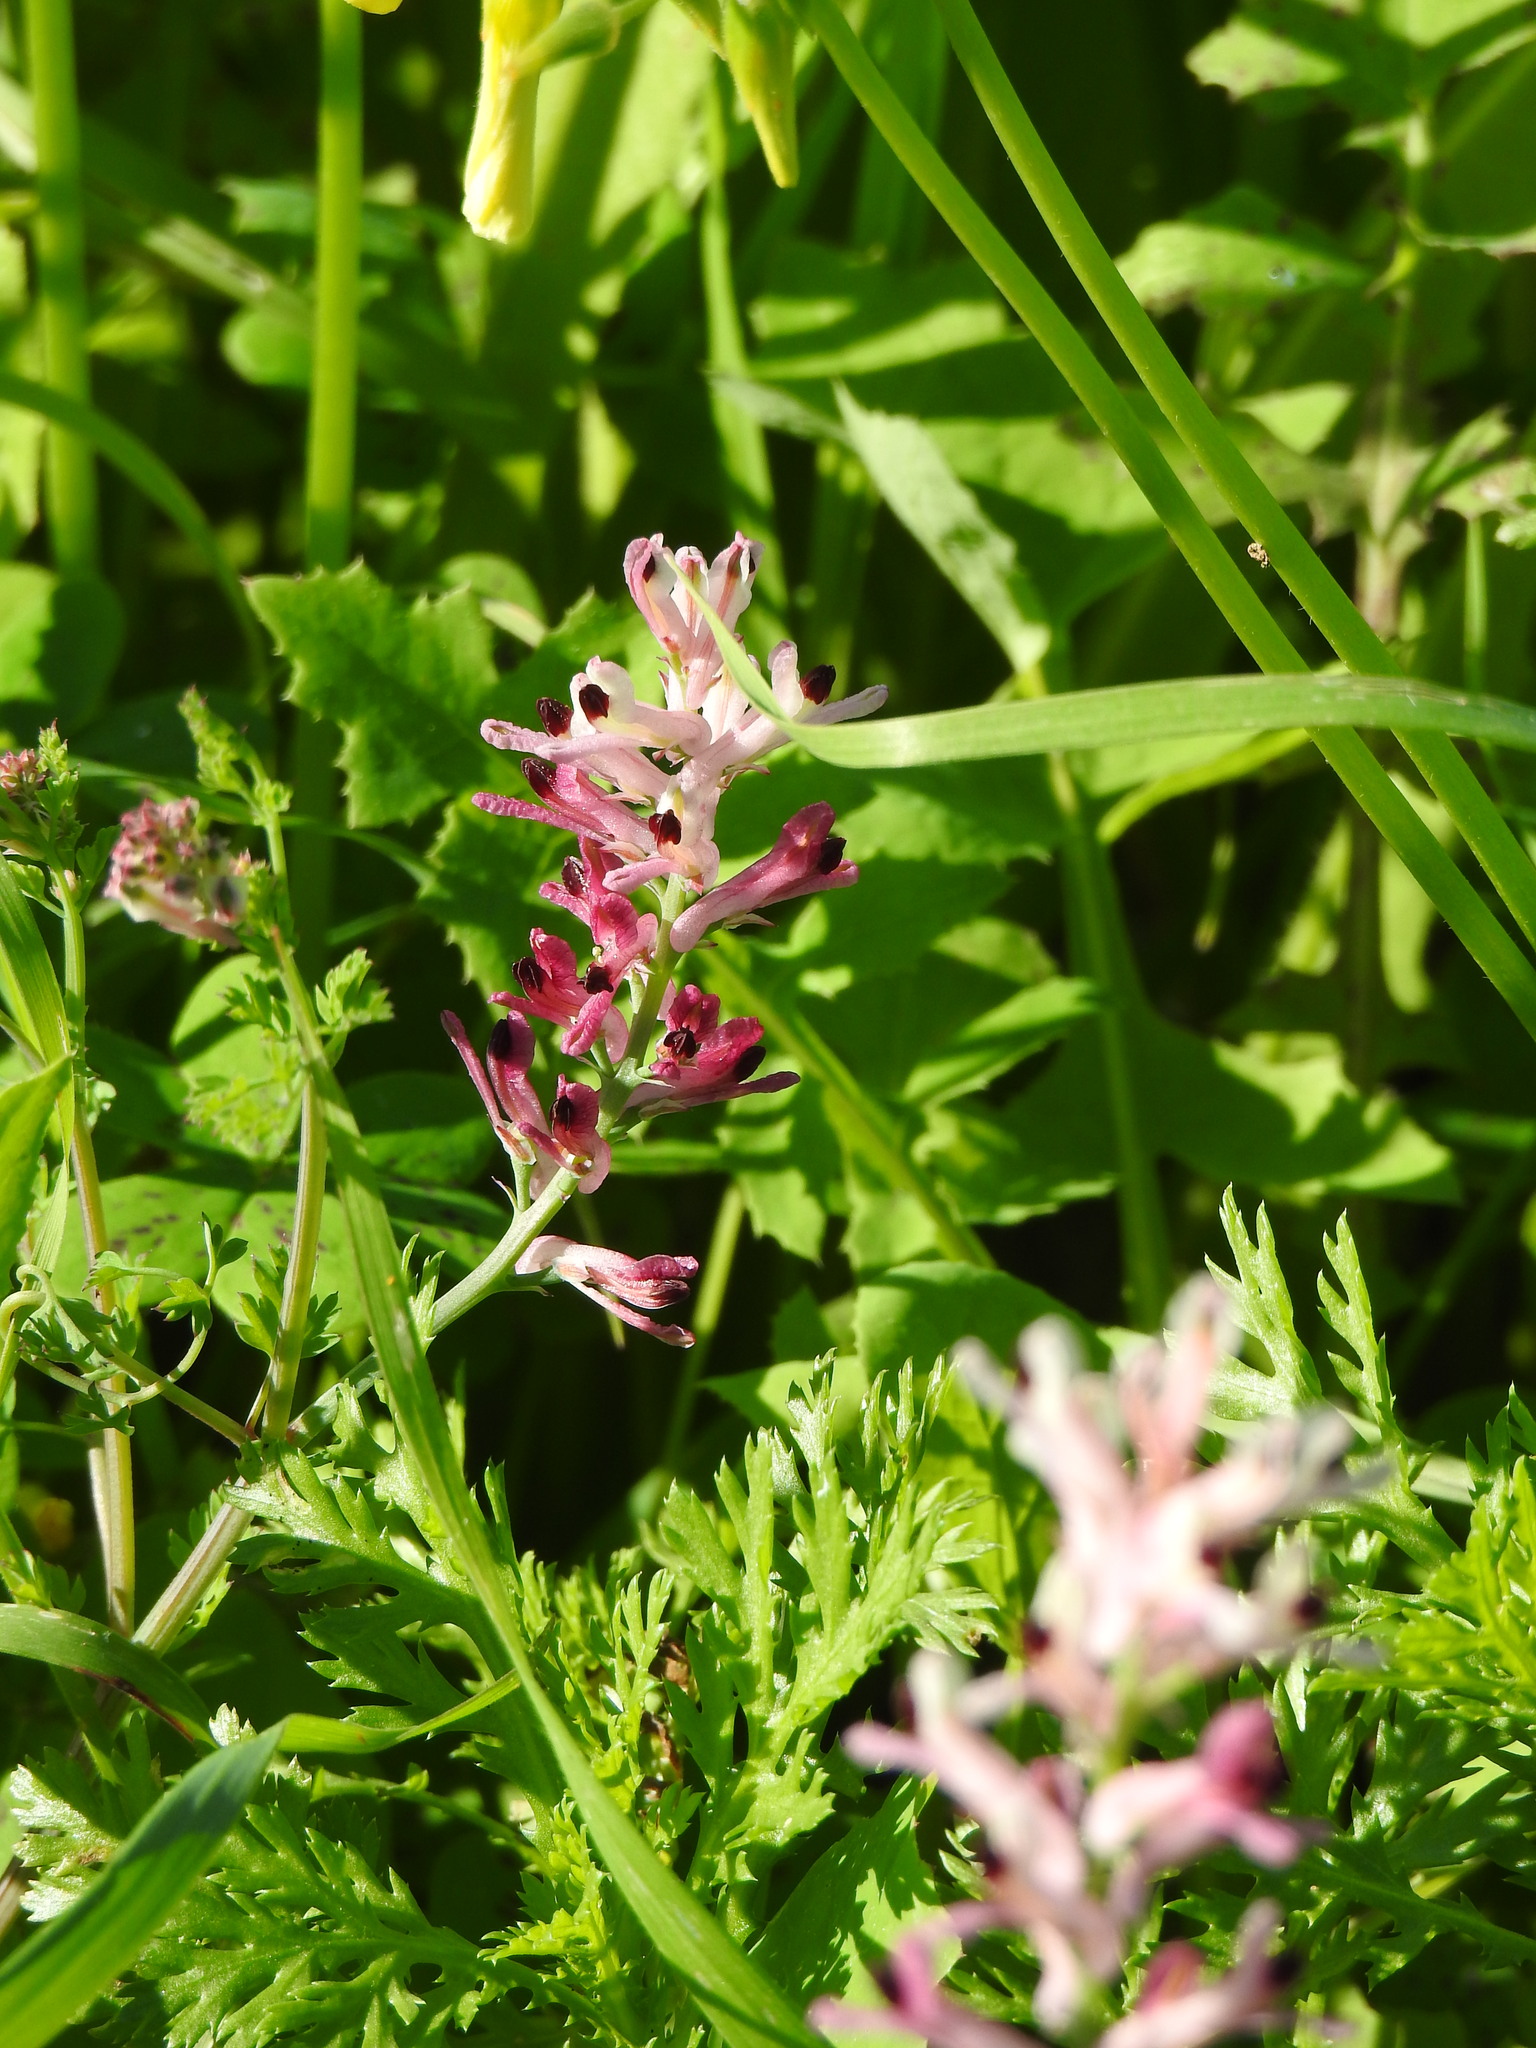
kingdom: Plantae
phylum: Tracheophyta
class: Magnoliopsida
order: Ranunculales
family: Papaveraceae
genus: Fumaria
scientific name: Fumaria agraria
